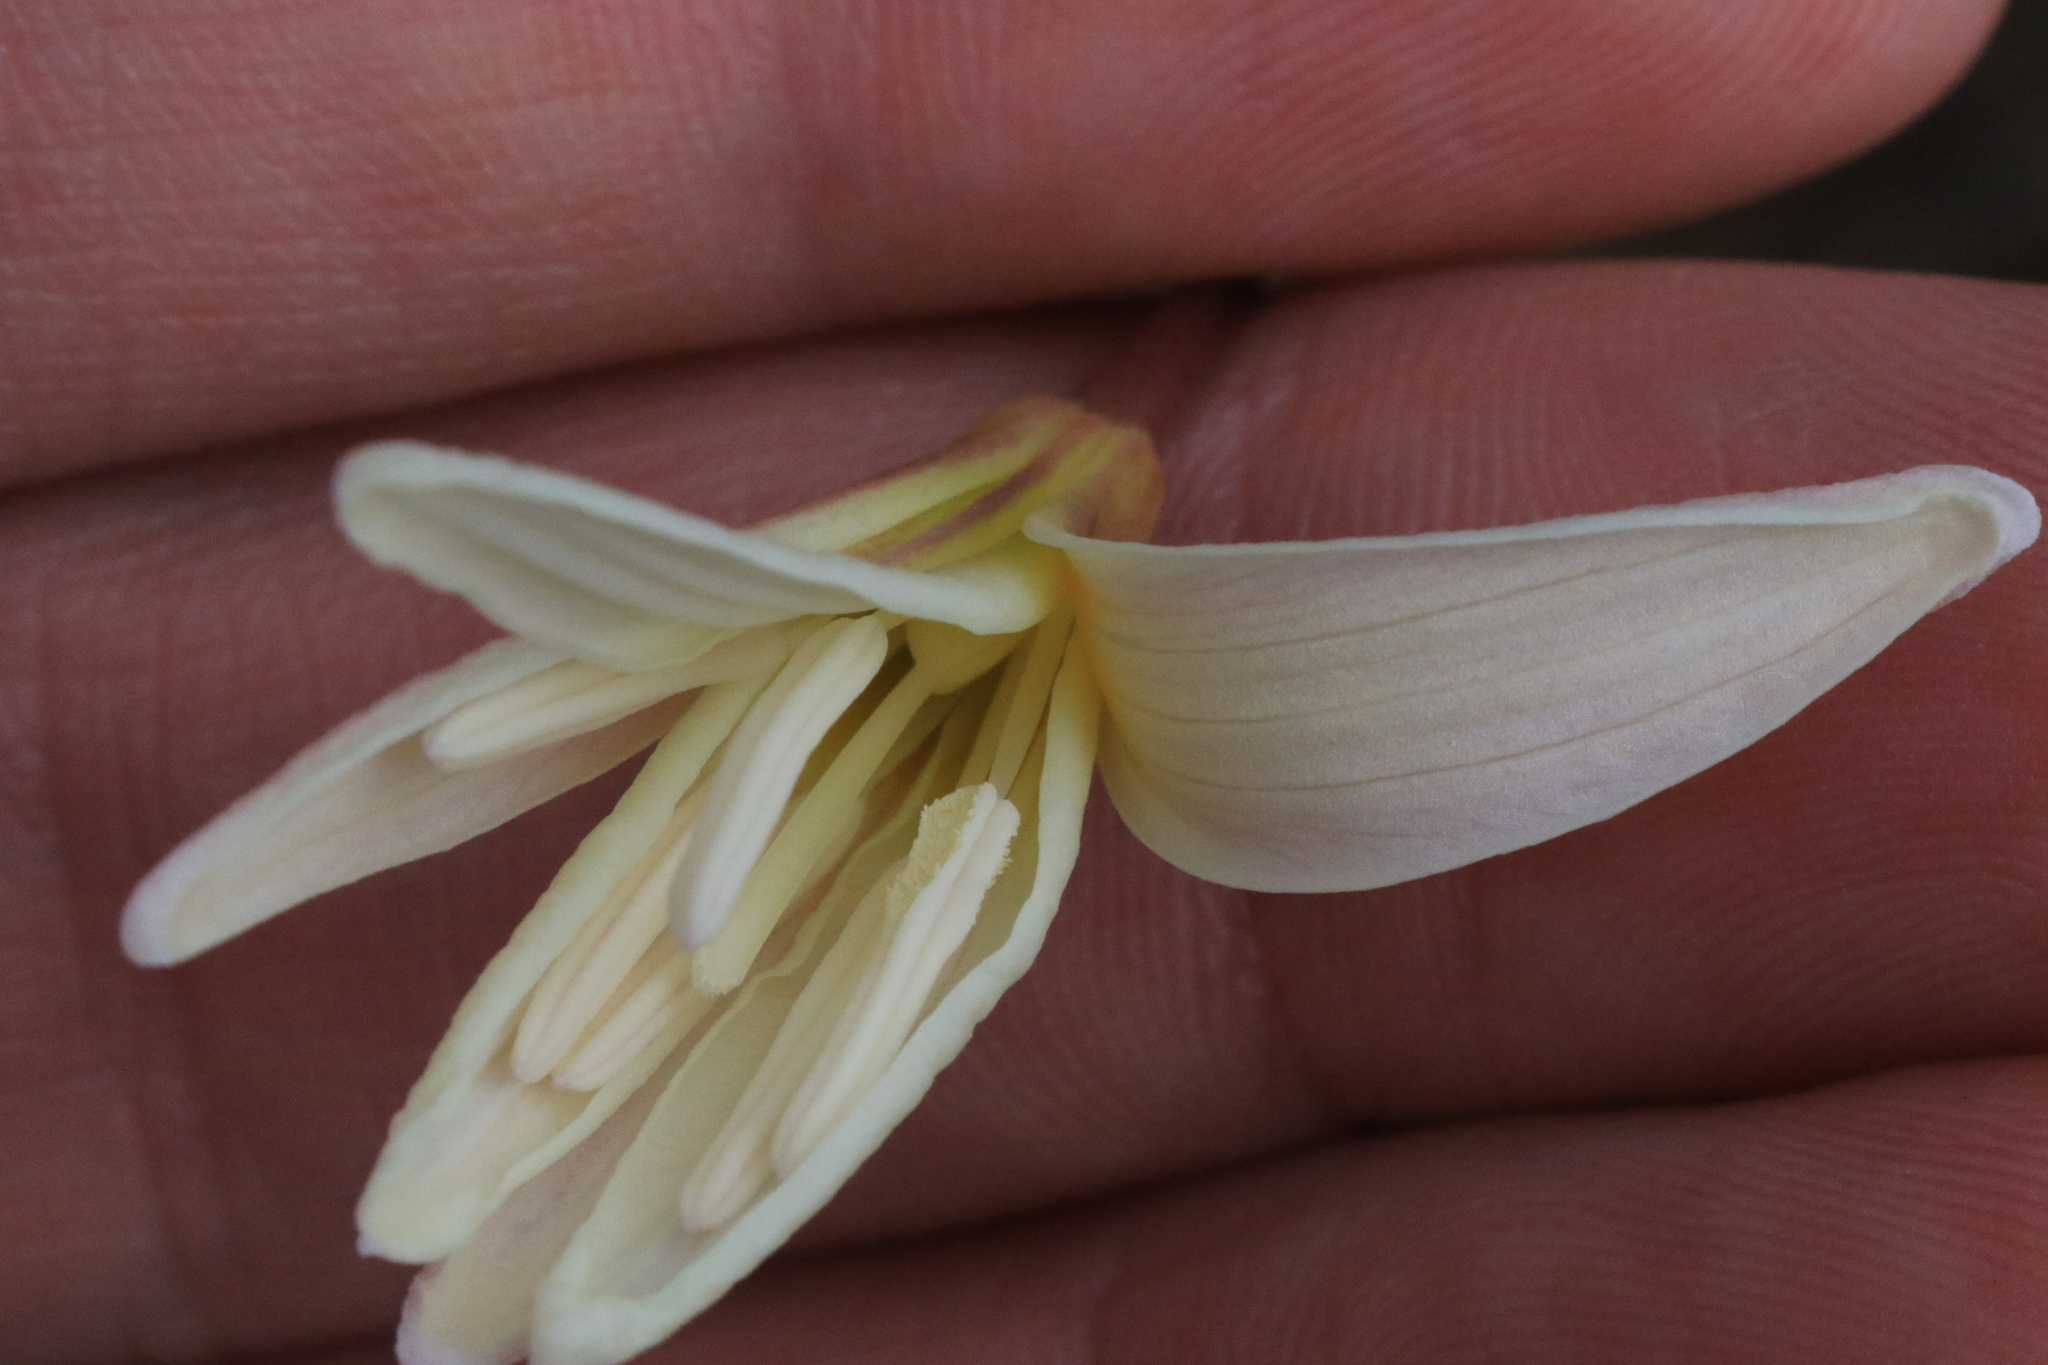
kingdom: Plantae
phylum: Tracheophyta
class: Liliopsida
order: Liliales
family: Liliaceae
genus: Erythronium
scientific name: Erythronium citrinum
